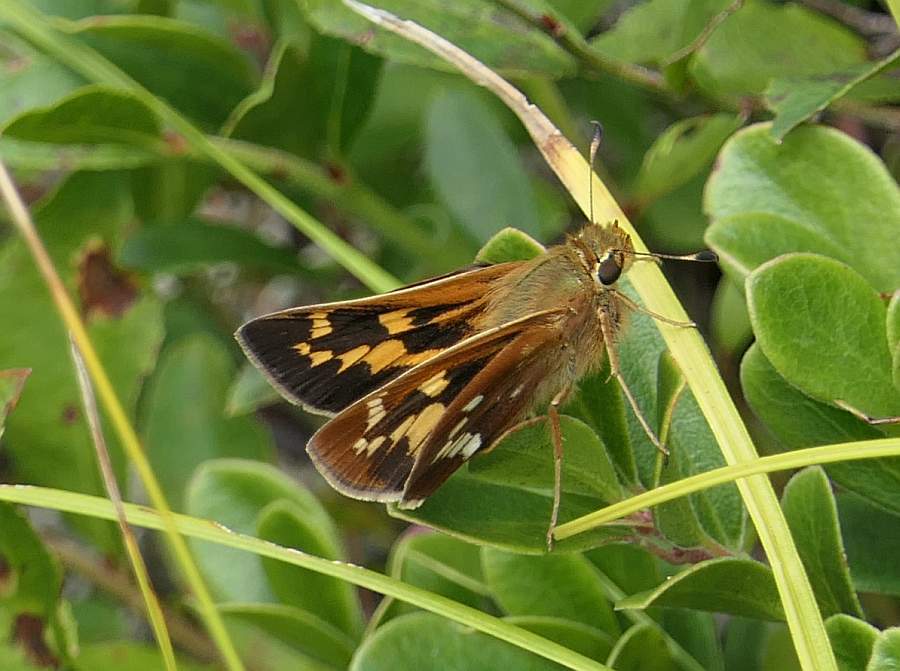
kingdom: Animalia
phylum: Arthropoda
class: Insecta
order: Lepidoptera
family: Hesperiidae
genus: Hesperia
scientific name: Hesperia leonardus
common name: Leonard's skipper
